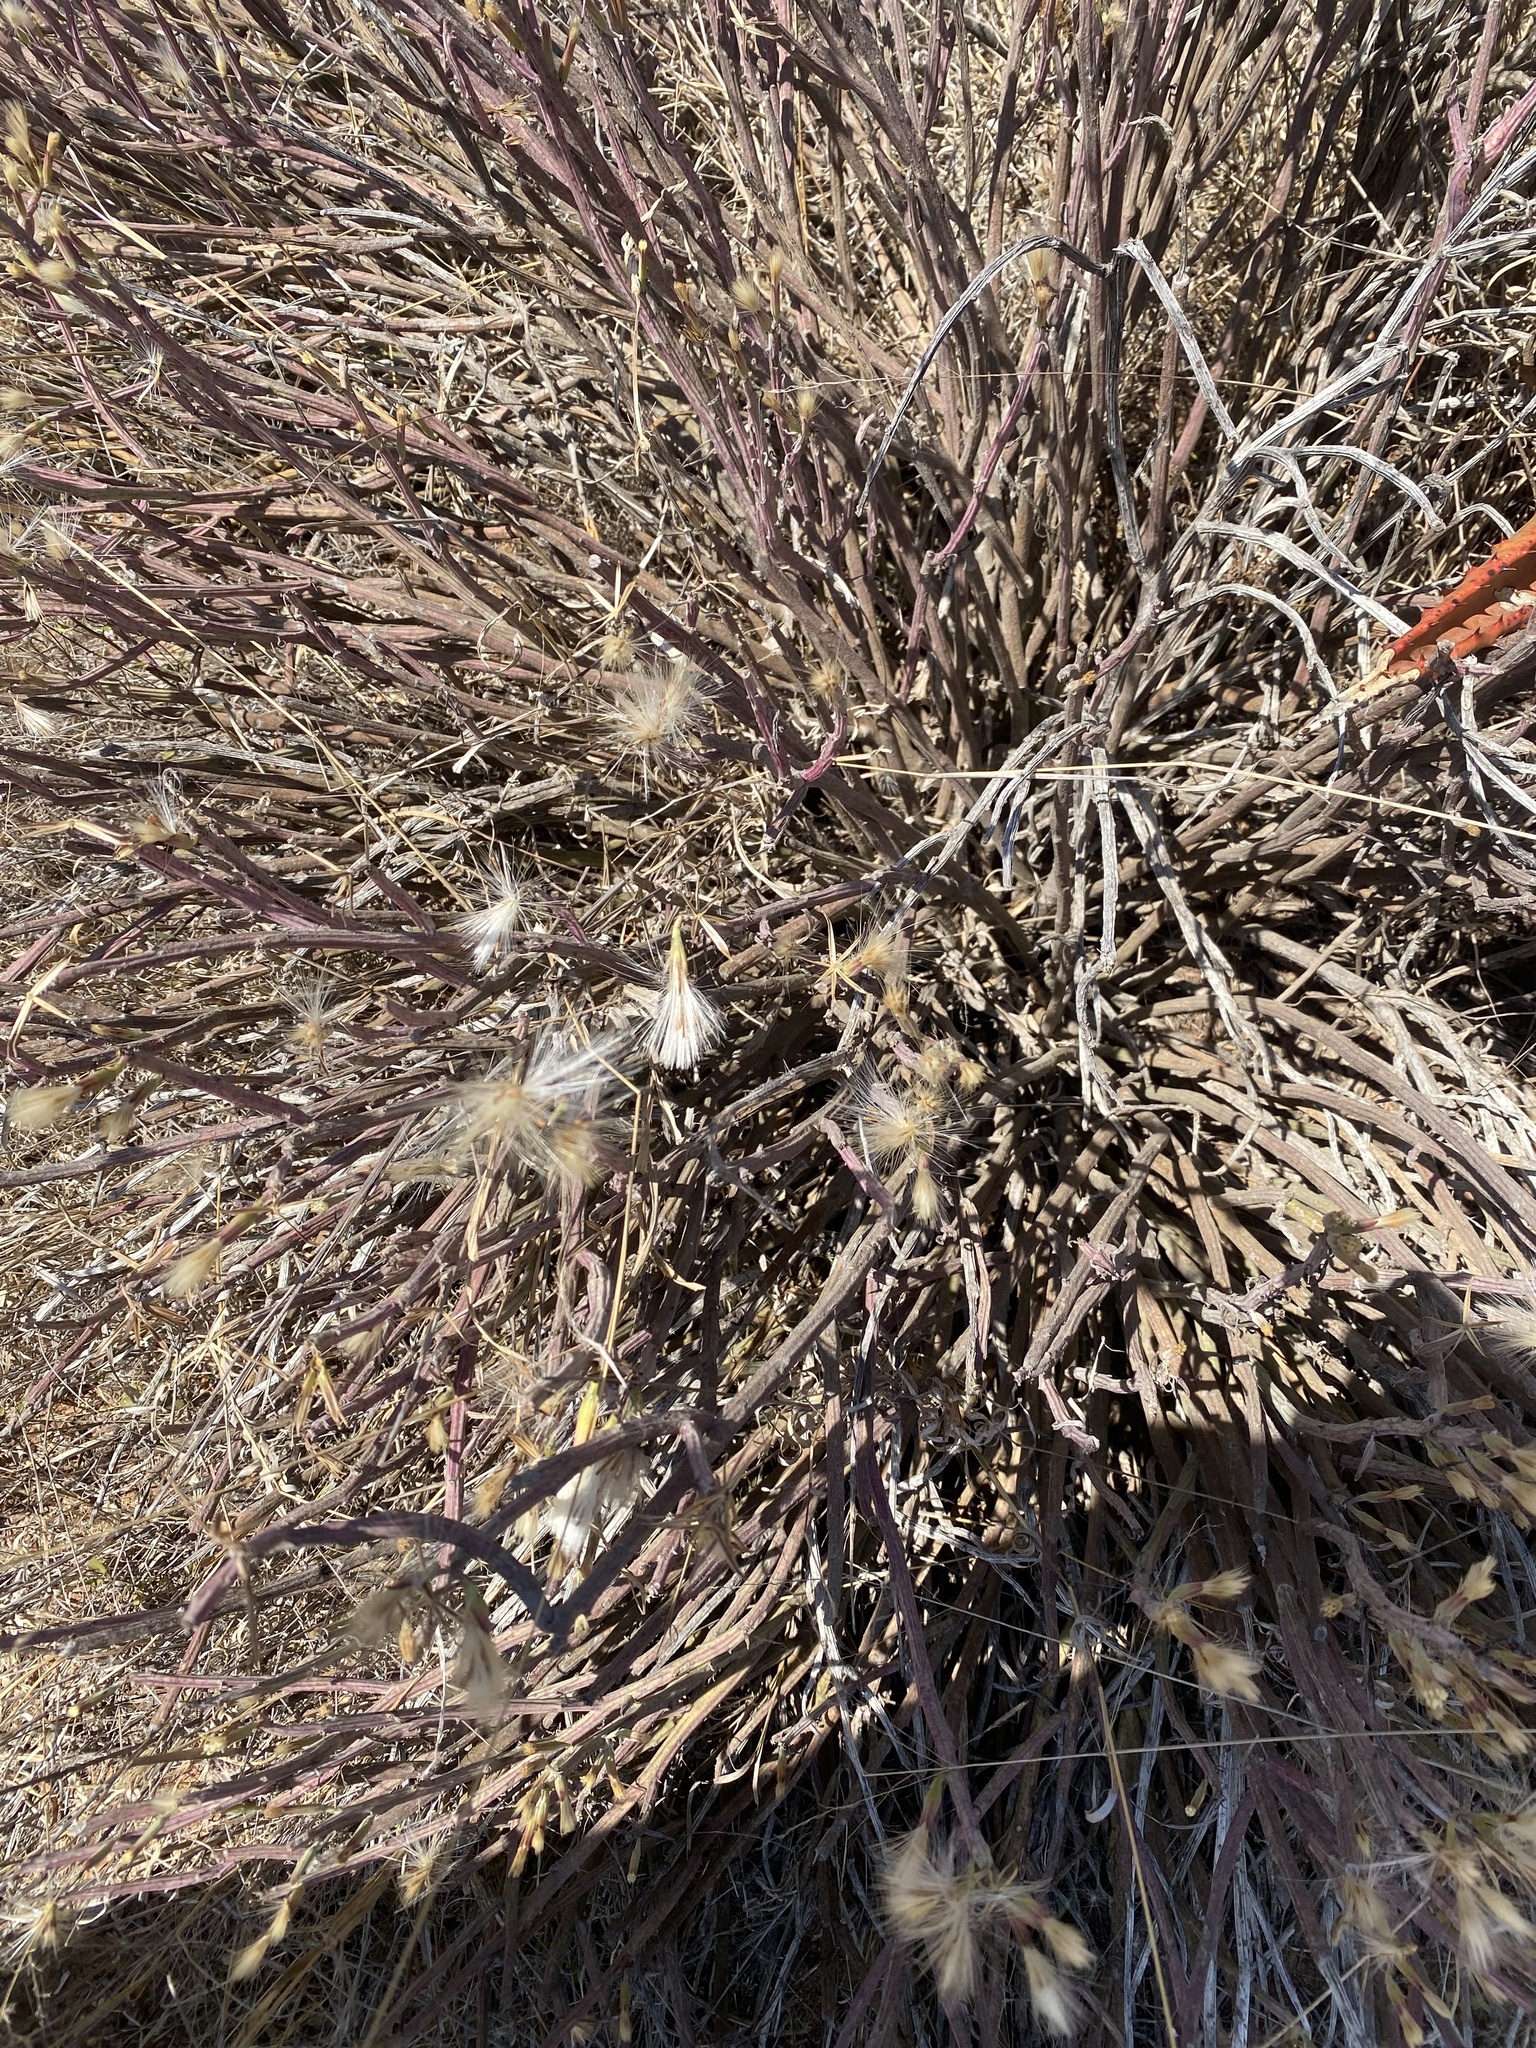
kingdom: Plantae
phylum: Tracheophyta
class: Magnoliopsida
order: Asterales
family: Asteraceae
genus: Curio
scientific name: Curio avasimontanus
